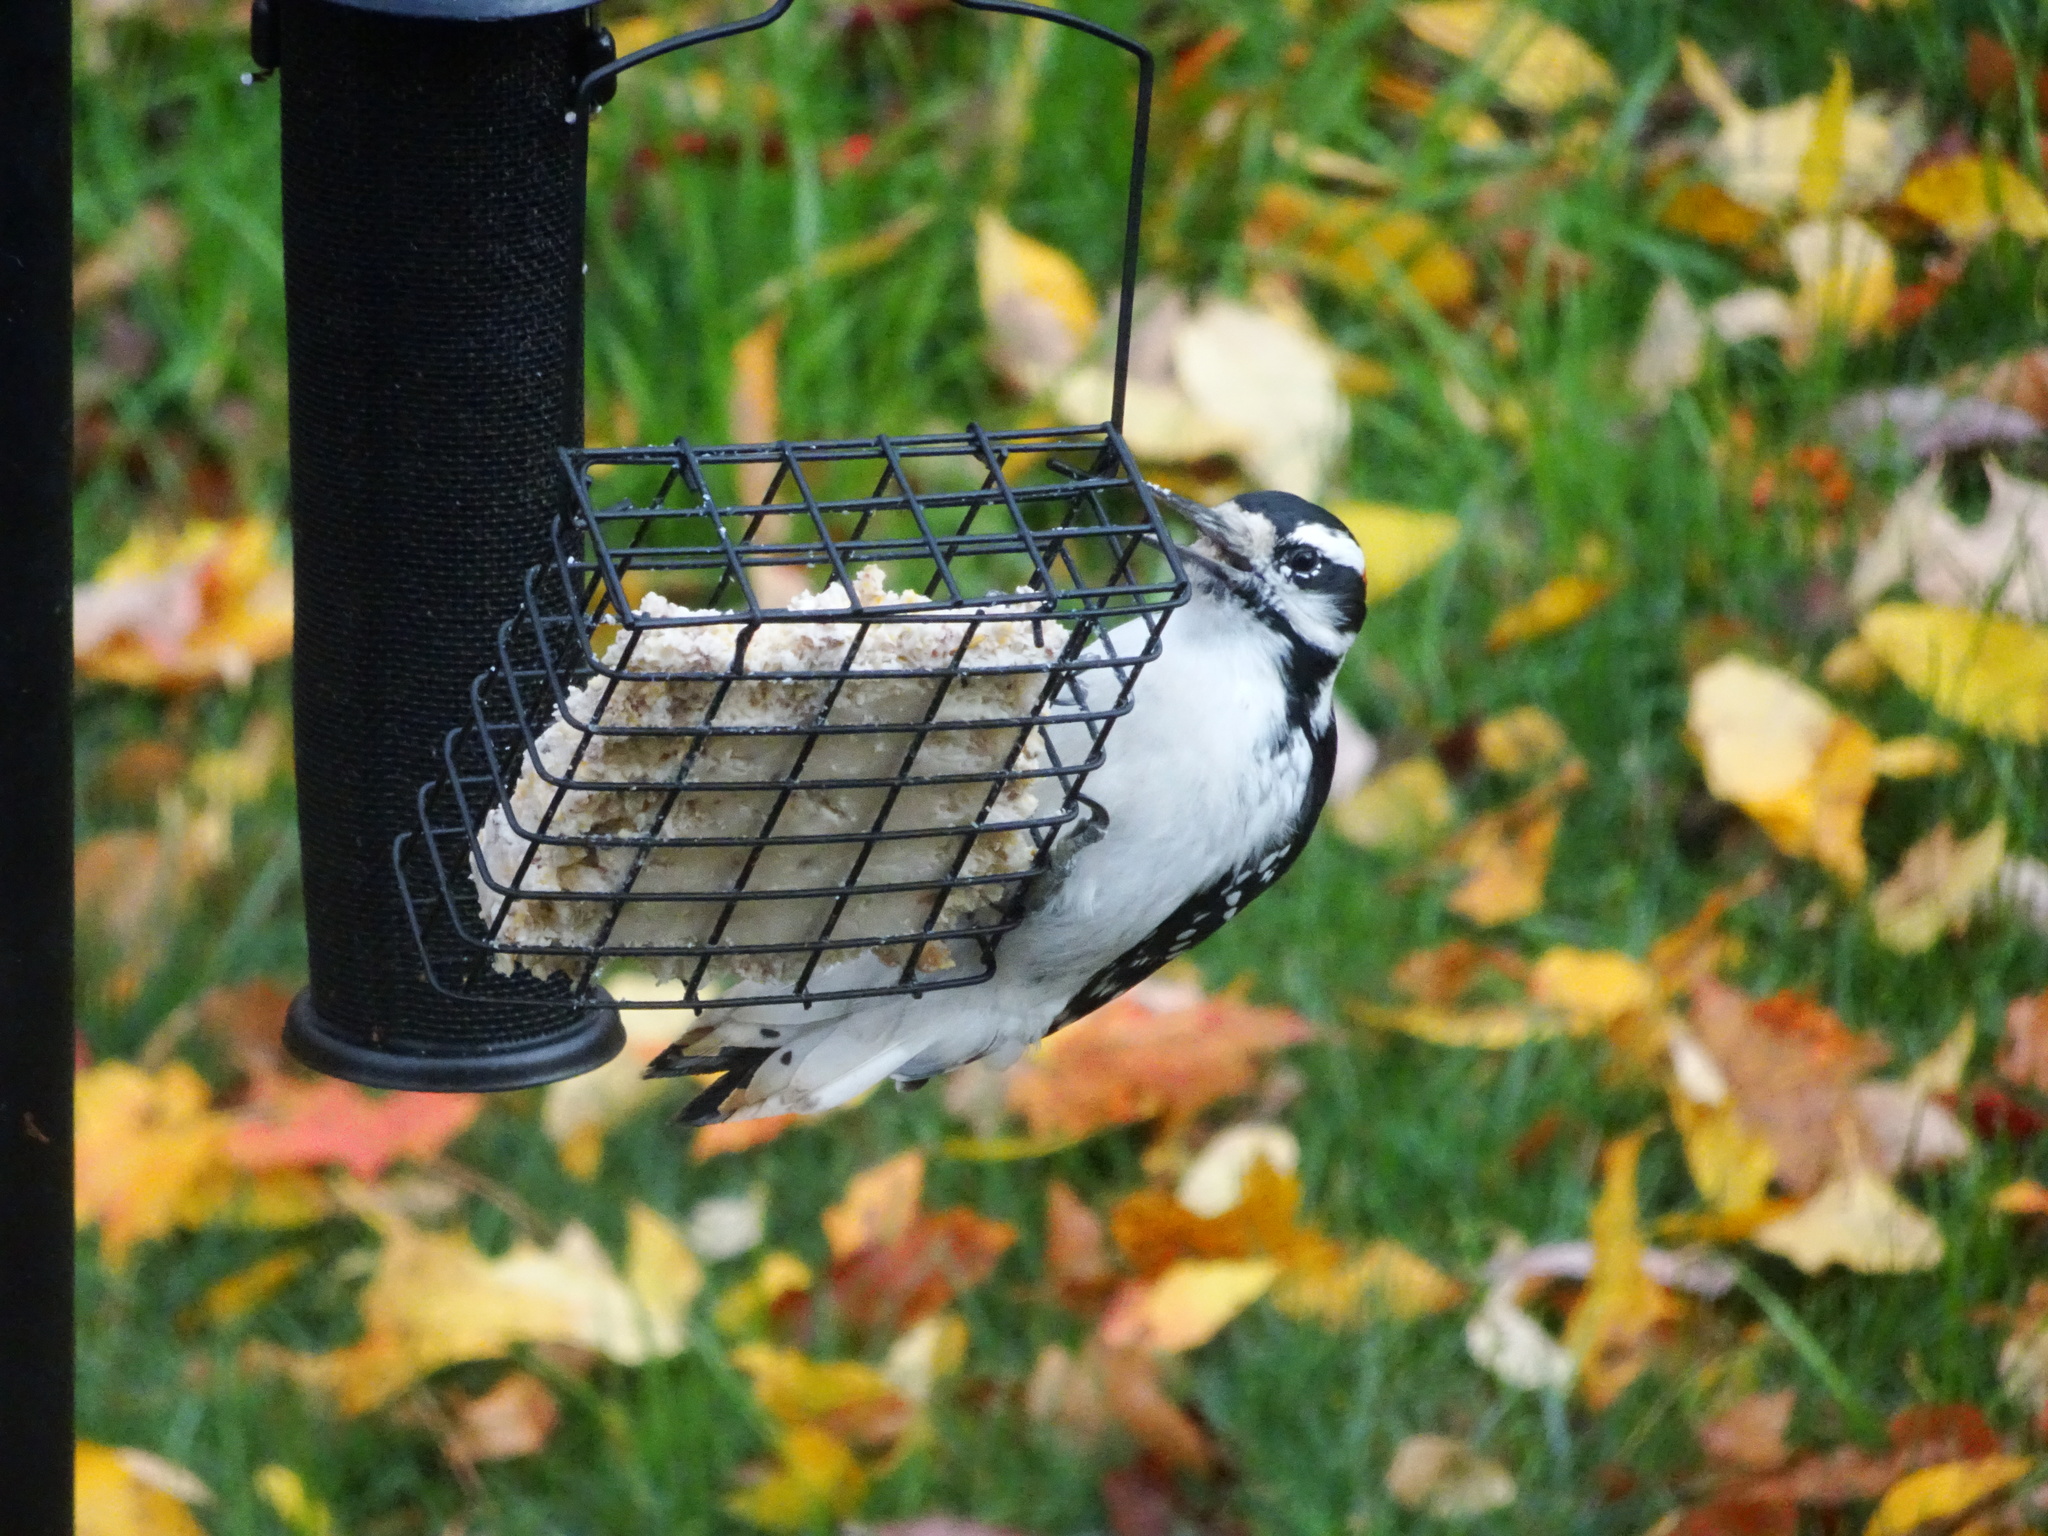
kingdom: Animalia
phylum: Chordata
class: Aves
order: Piciformes
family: Picidae
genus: Leuconotopicus
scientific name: Leuconotopicus villosus
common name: Hairy woodpecker
